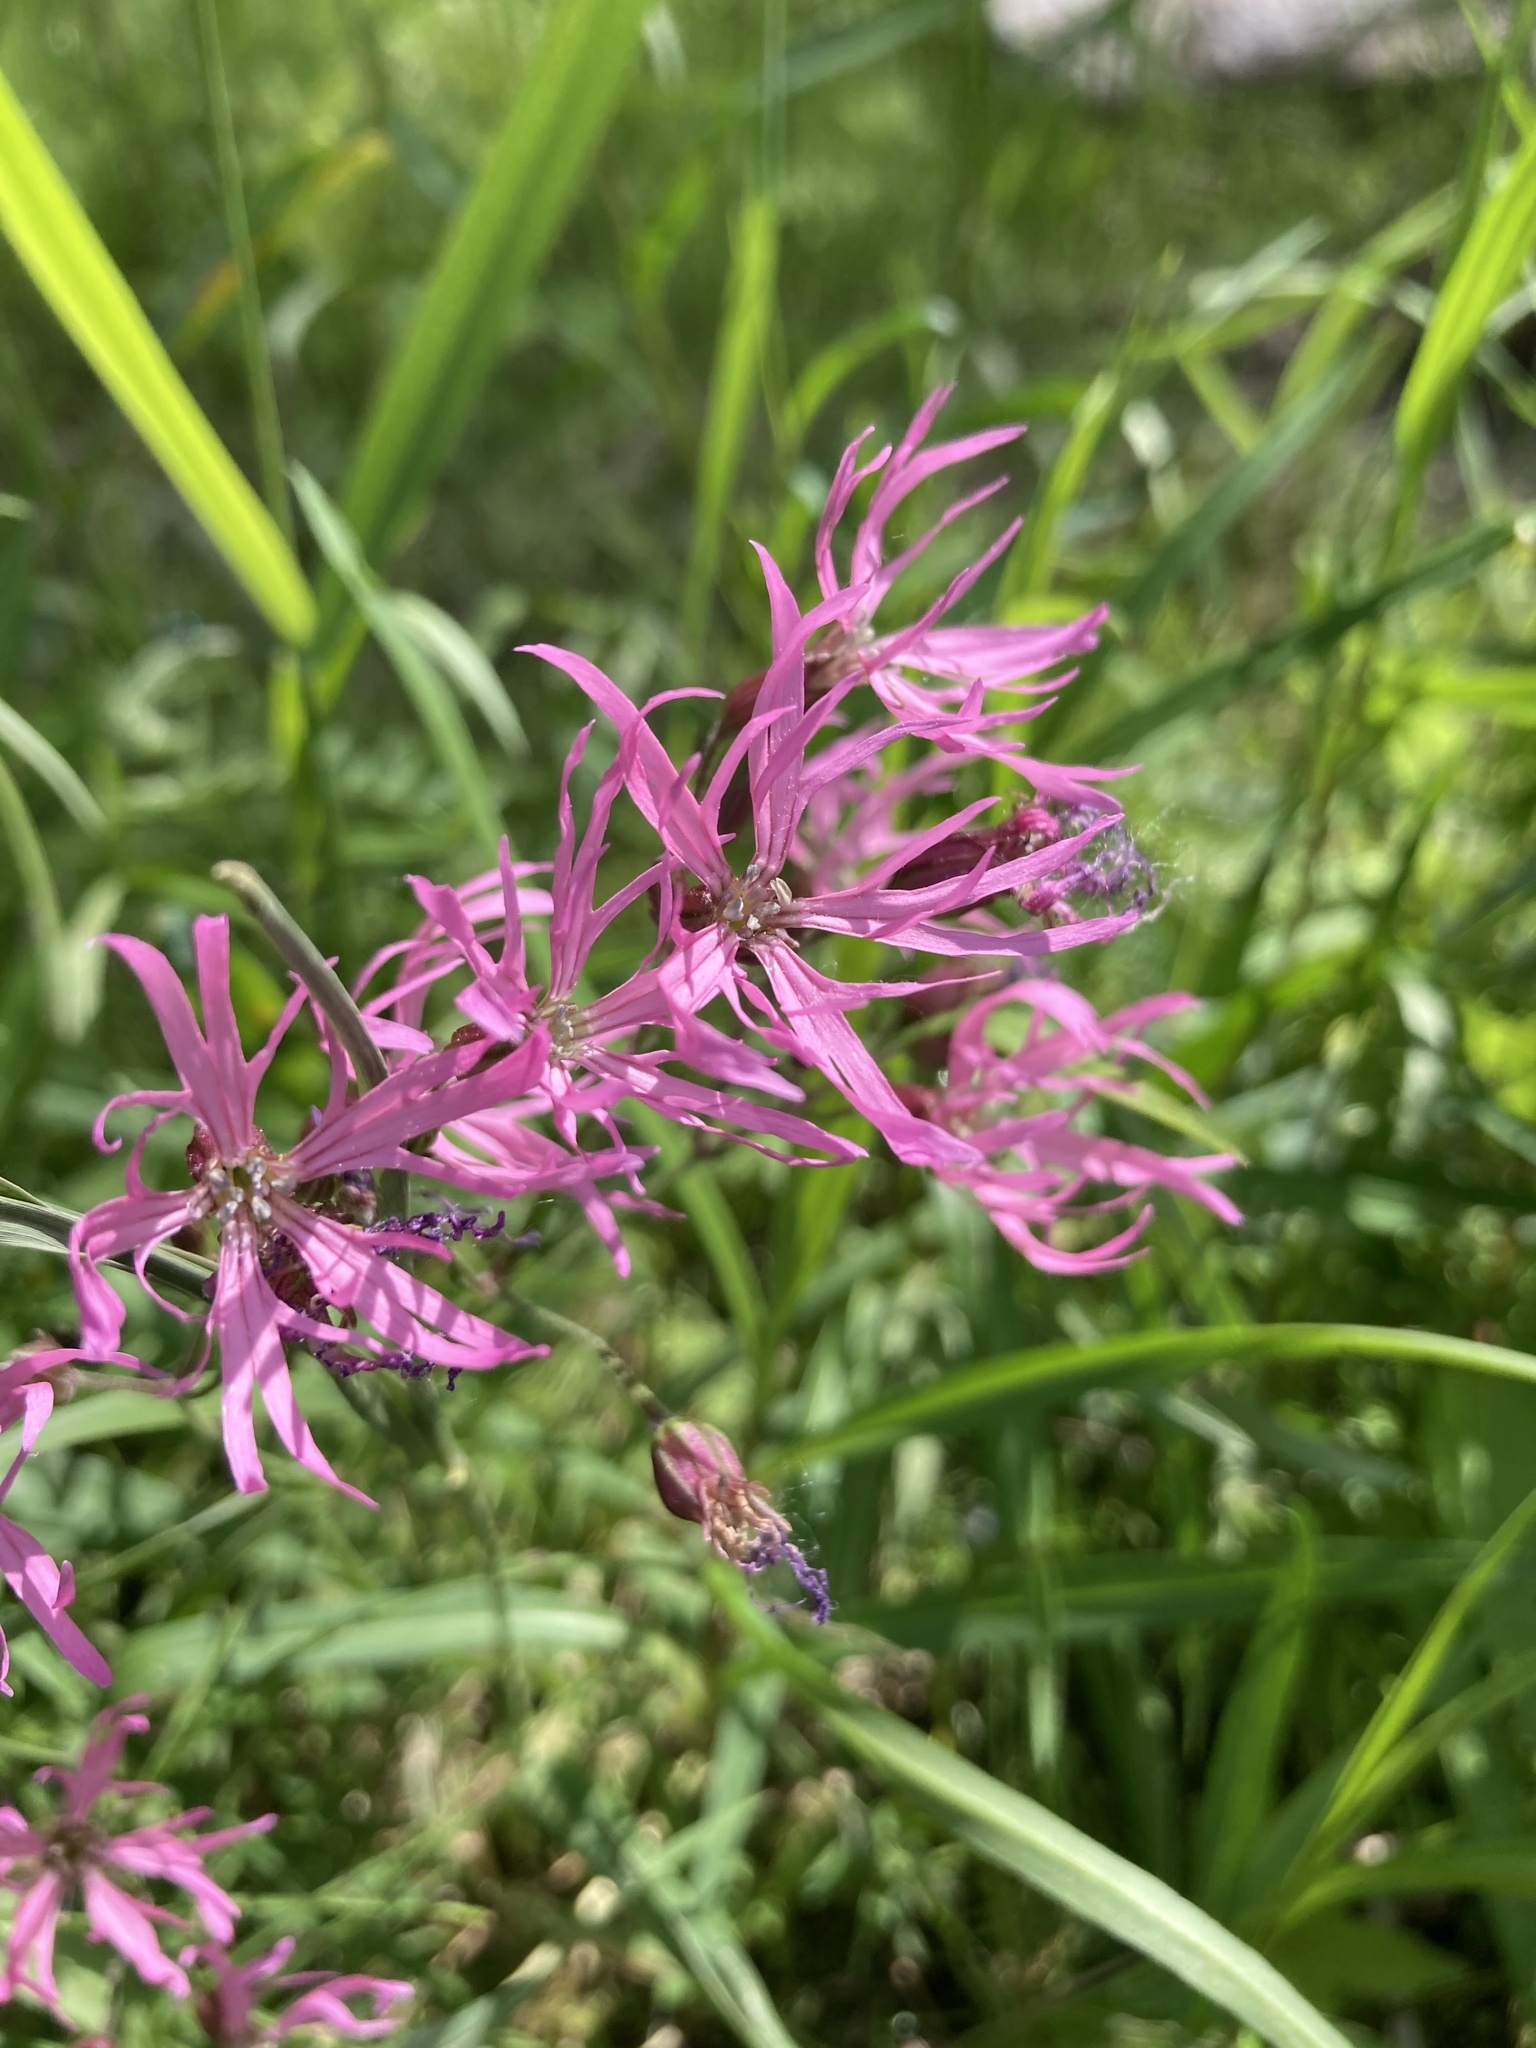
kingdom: Plantae
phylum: Tracheophyta
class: Magnoliopsida
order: Caryophyllales
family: Caryophyllaceae
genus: Silene
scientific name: Silene flos-cuculi
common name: Ragged-robin
